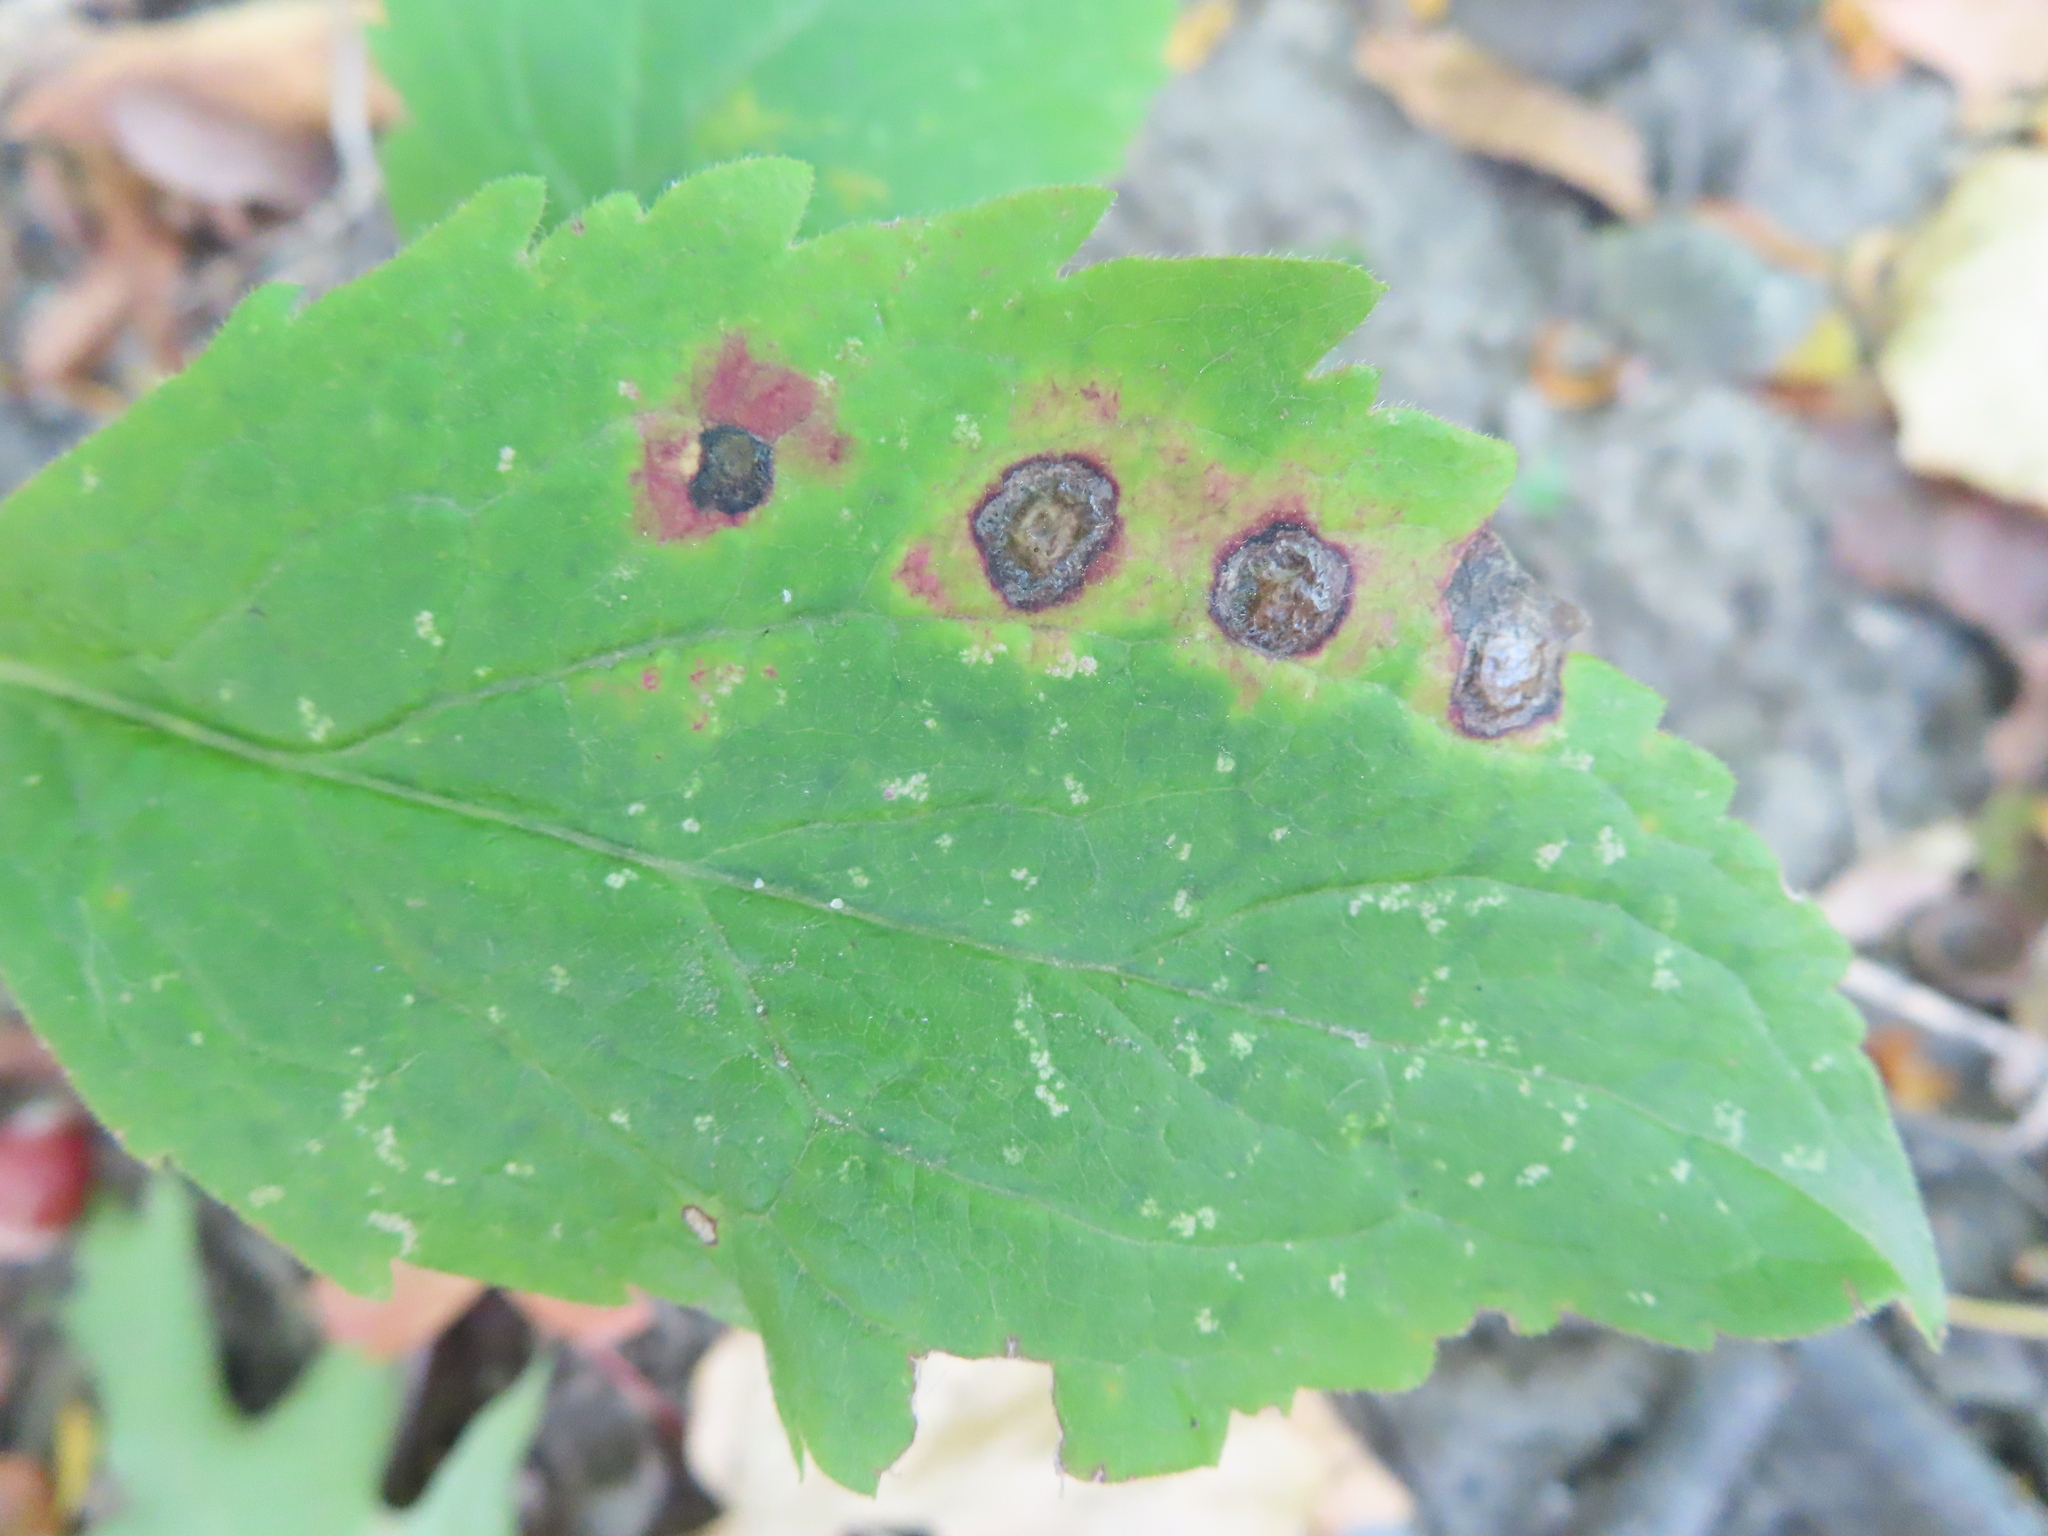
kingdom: Animalia
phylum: Arthropoda
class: Insecta
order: Diptera
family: Cecidomyiidae
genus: Asteromyia
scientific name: Asteromyia carbonifera
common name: Carbonifera goldenrod gall midge
